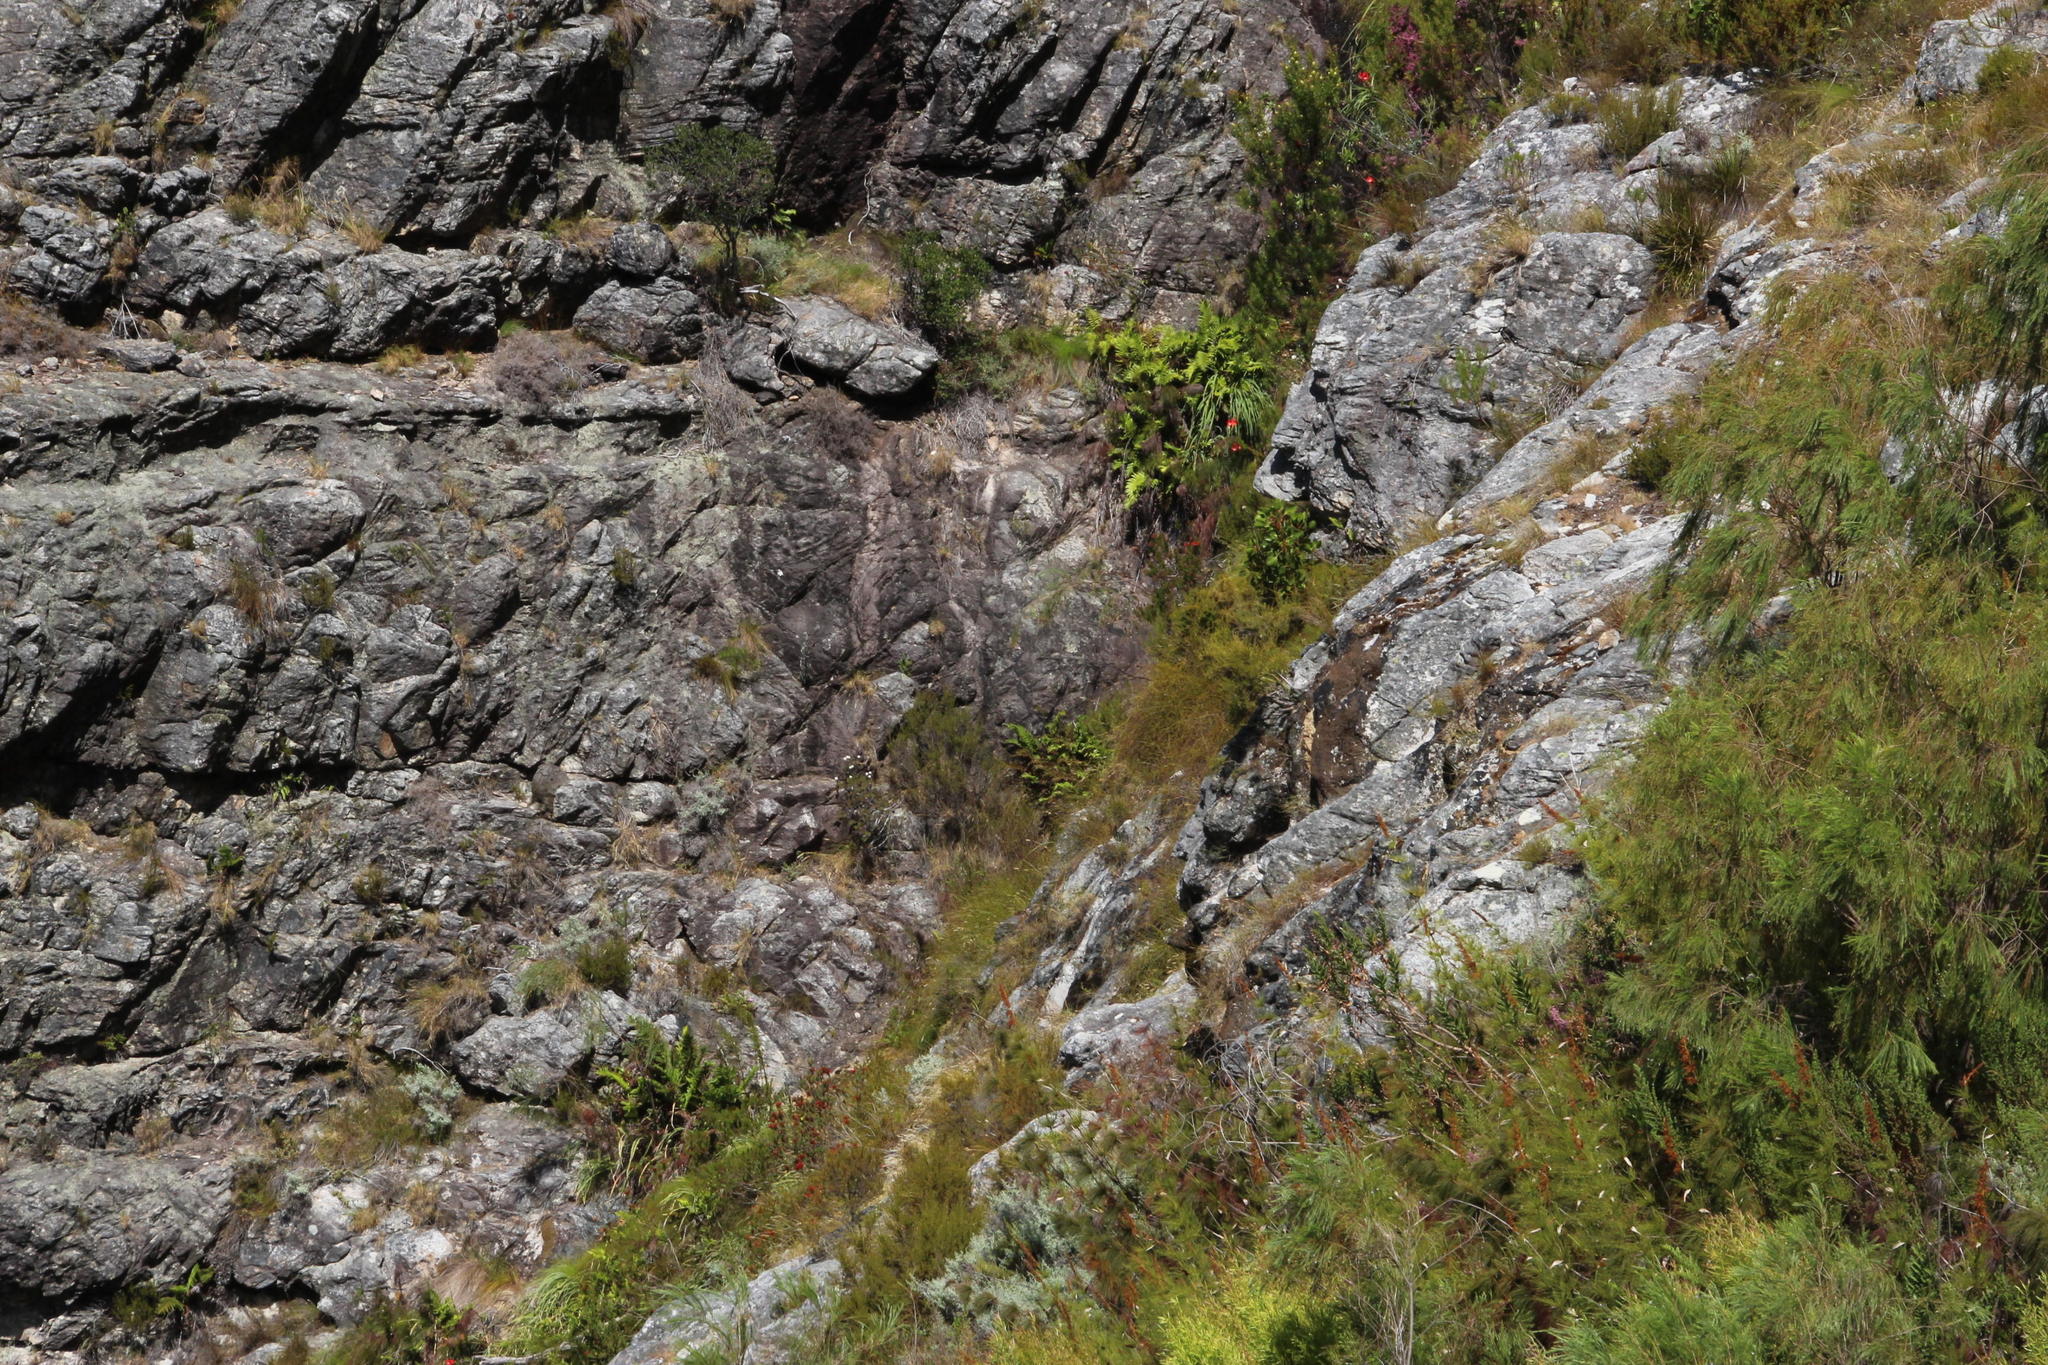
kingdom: Plantae
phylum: Tracheophyta
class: Polypodiopsida
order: Osmundales
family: Osmundaceae
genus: Todea
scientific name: Todea barbara
